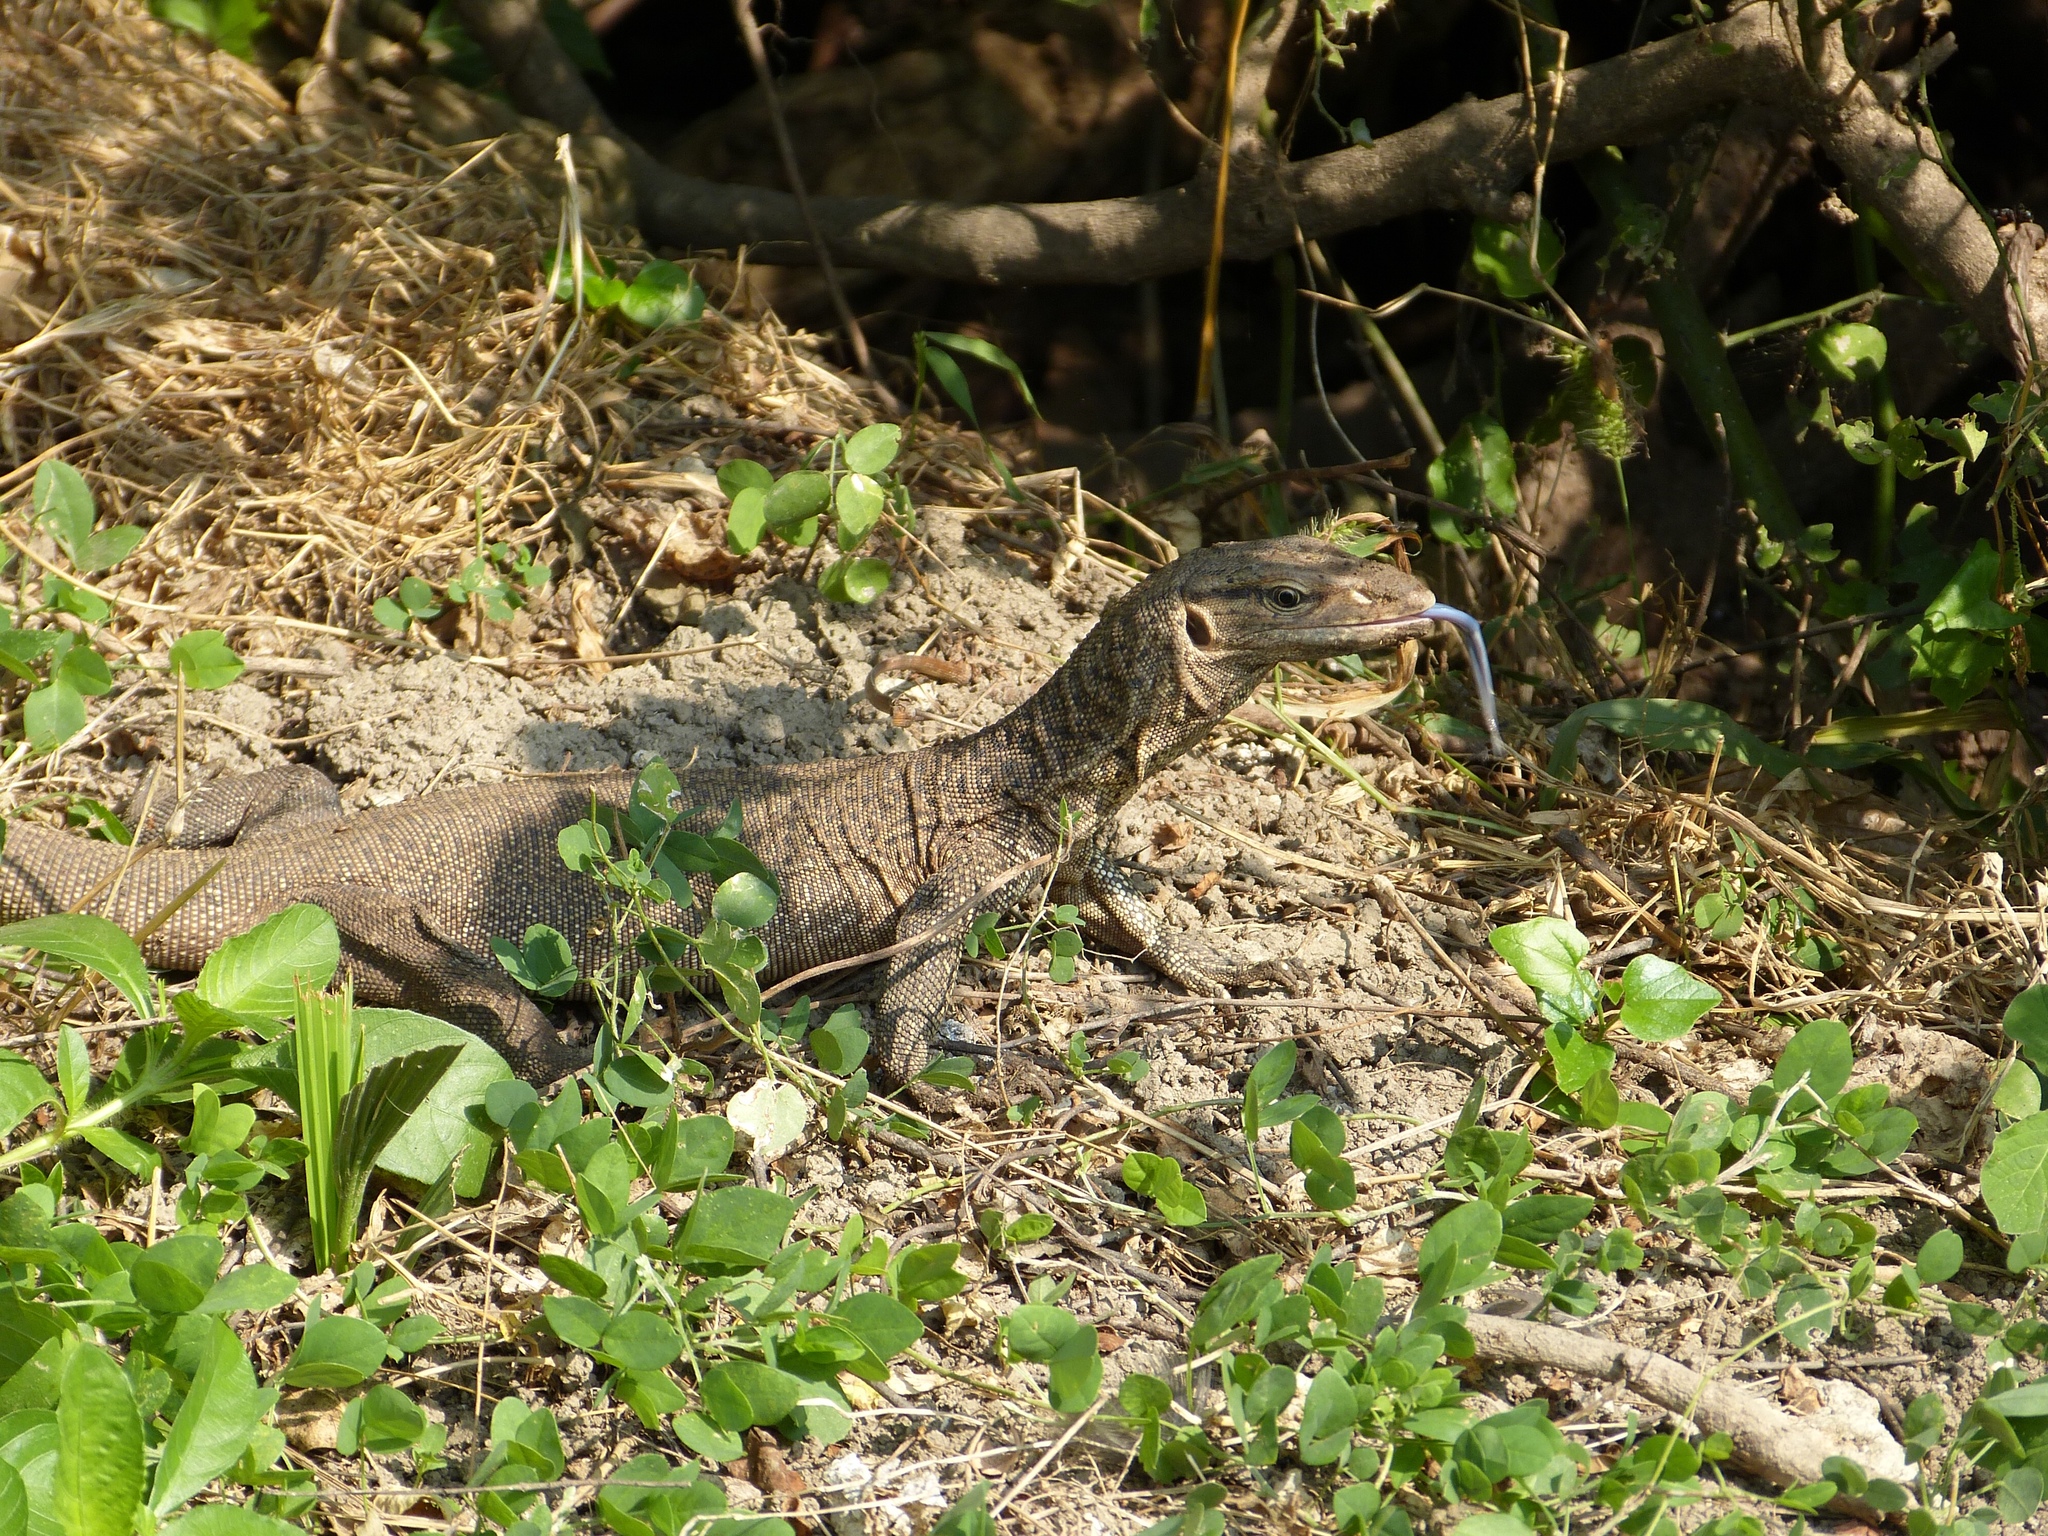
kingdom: Animalia
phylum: Chordata
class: Squamata
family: Varanidae
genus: Varanus
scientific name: Varanus bengalensis
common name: Bengal monitor
